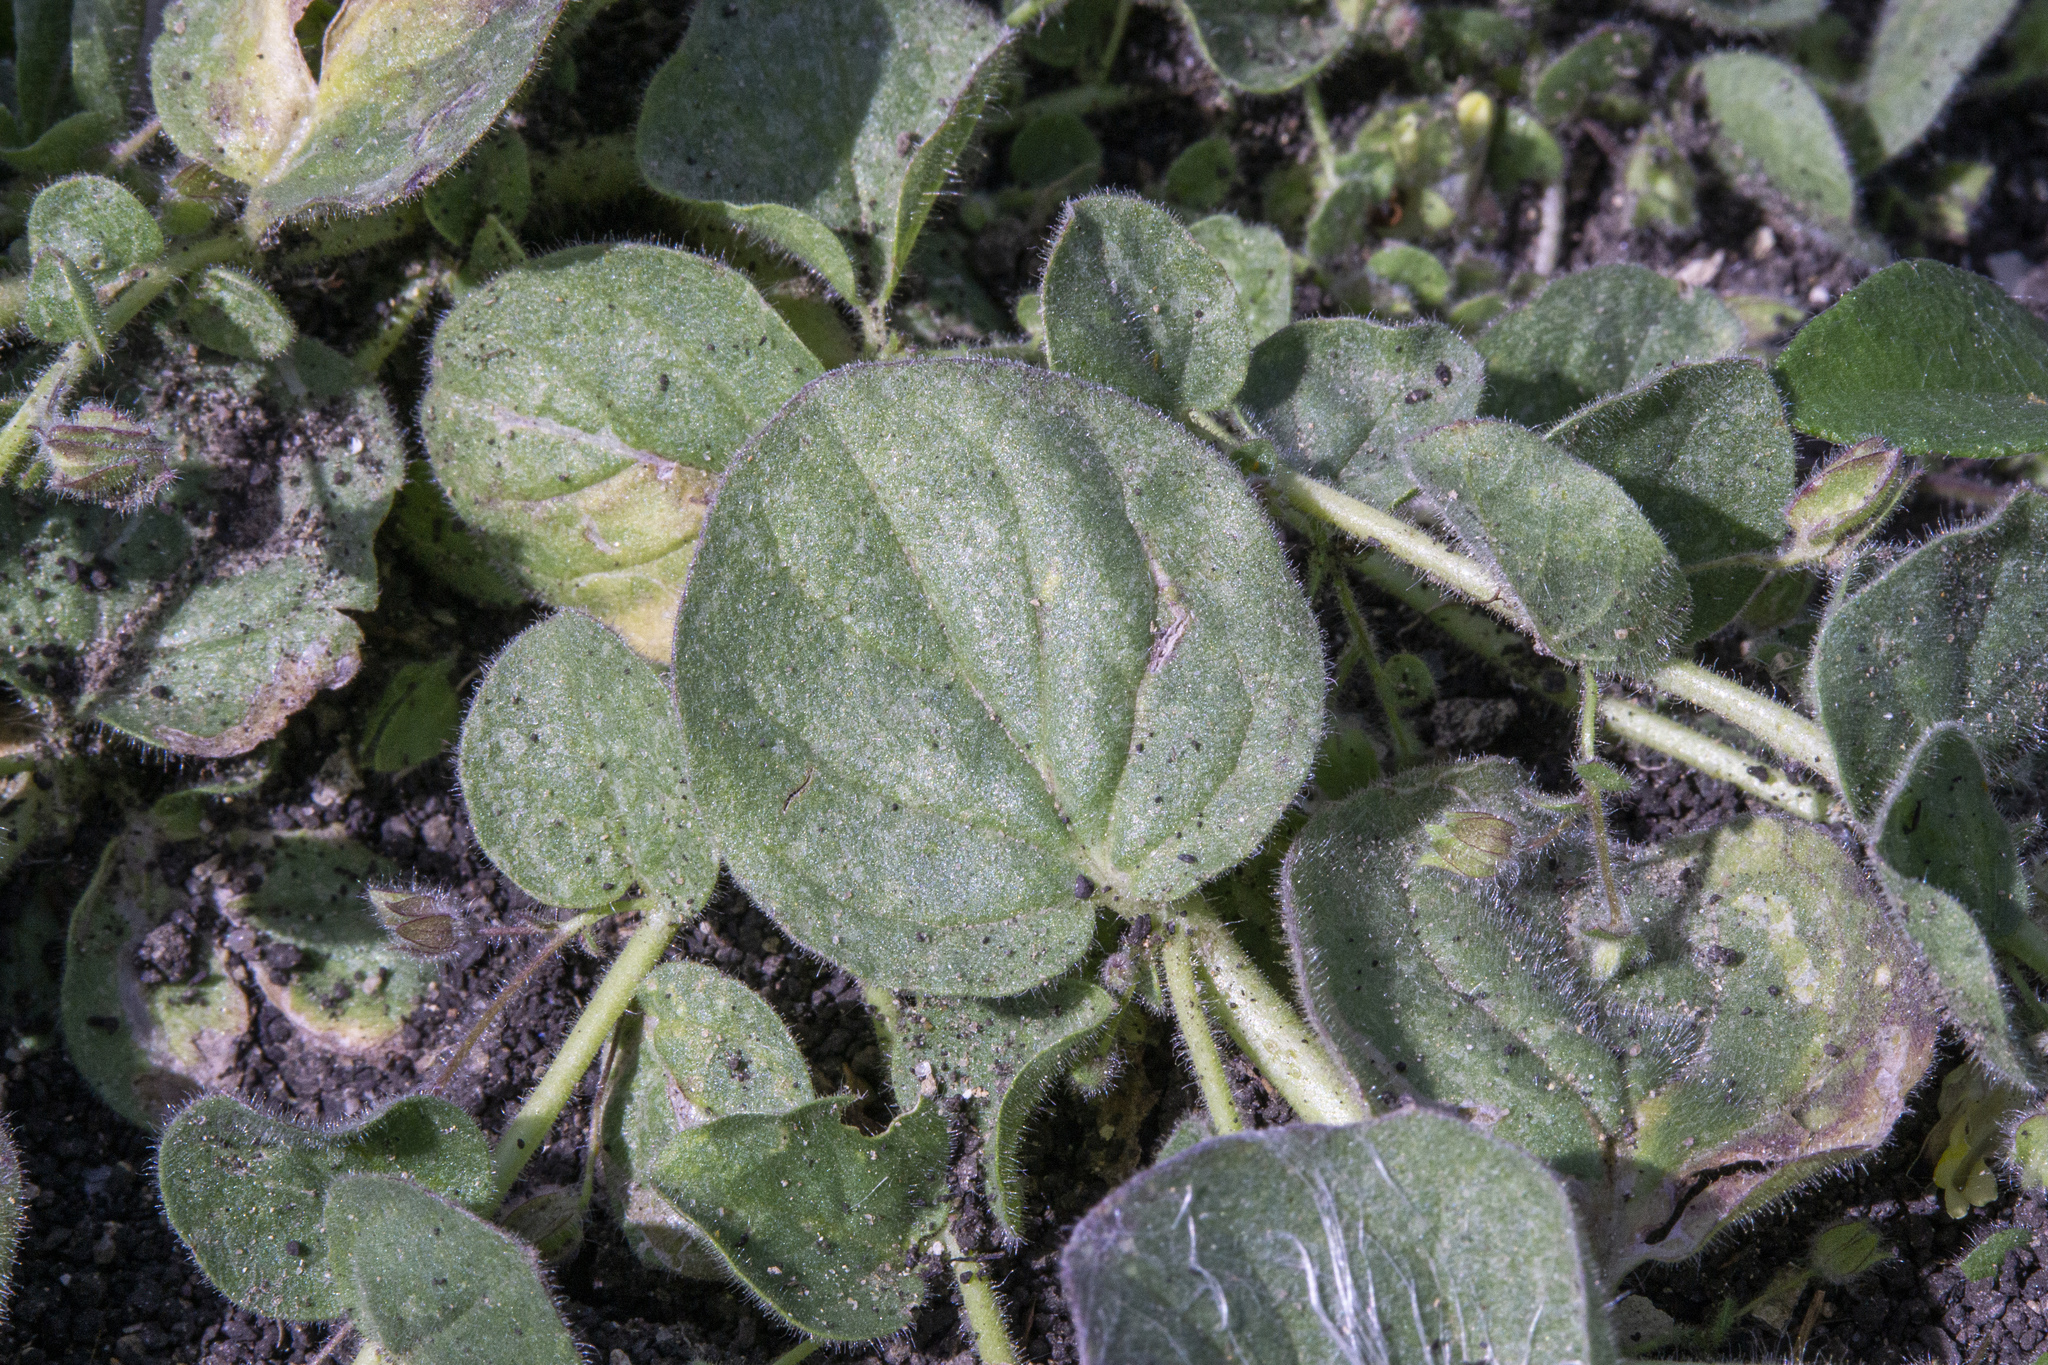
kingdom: Plantae
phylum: Tracheophyta
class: Magnoliopsida
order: Lamiales
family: Plantaginaceae
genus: Kickxia
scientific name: Kickxia spuria
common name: Round-leaved fluellen
